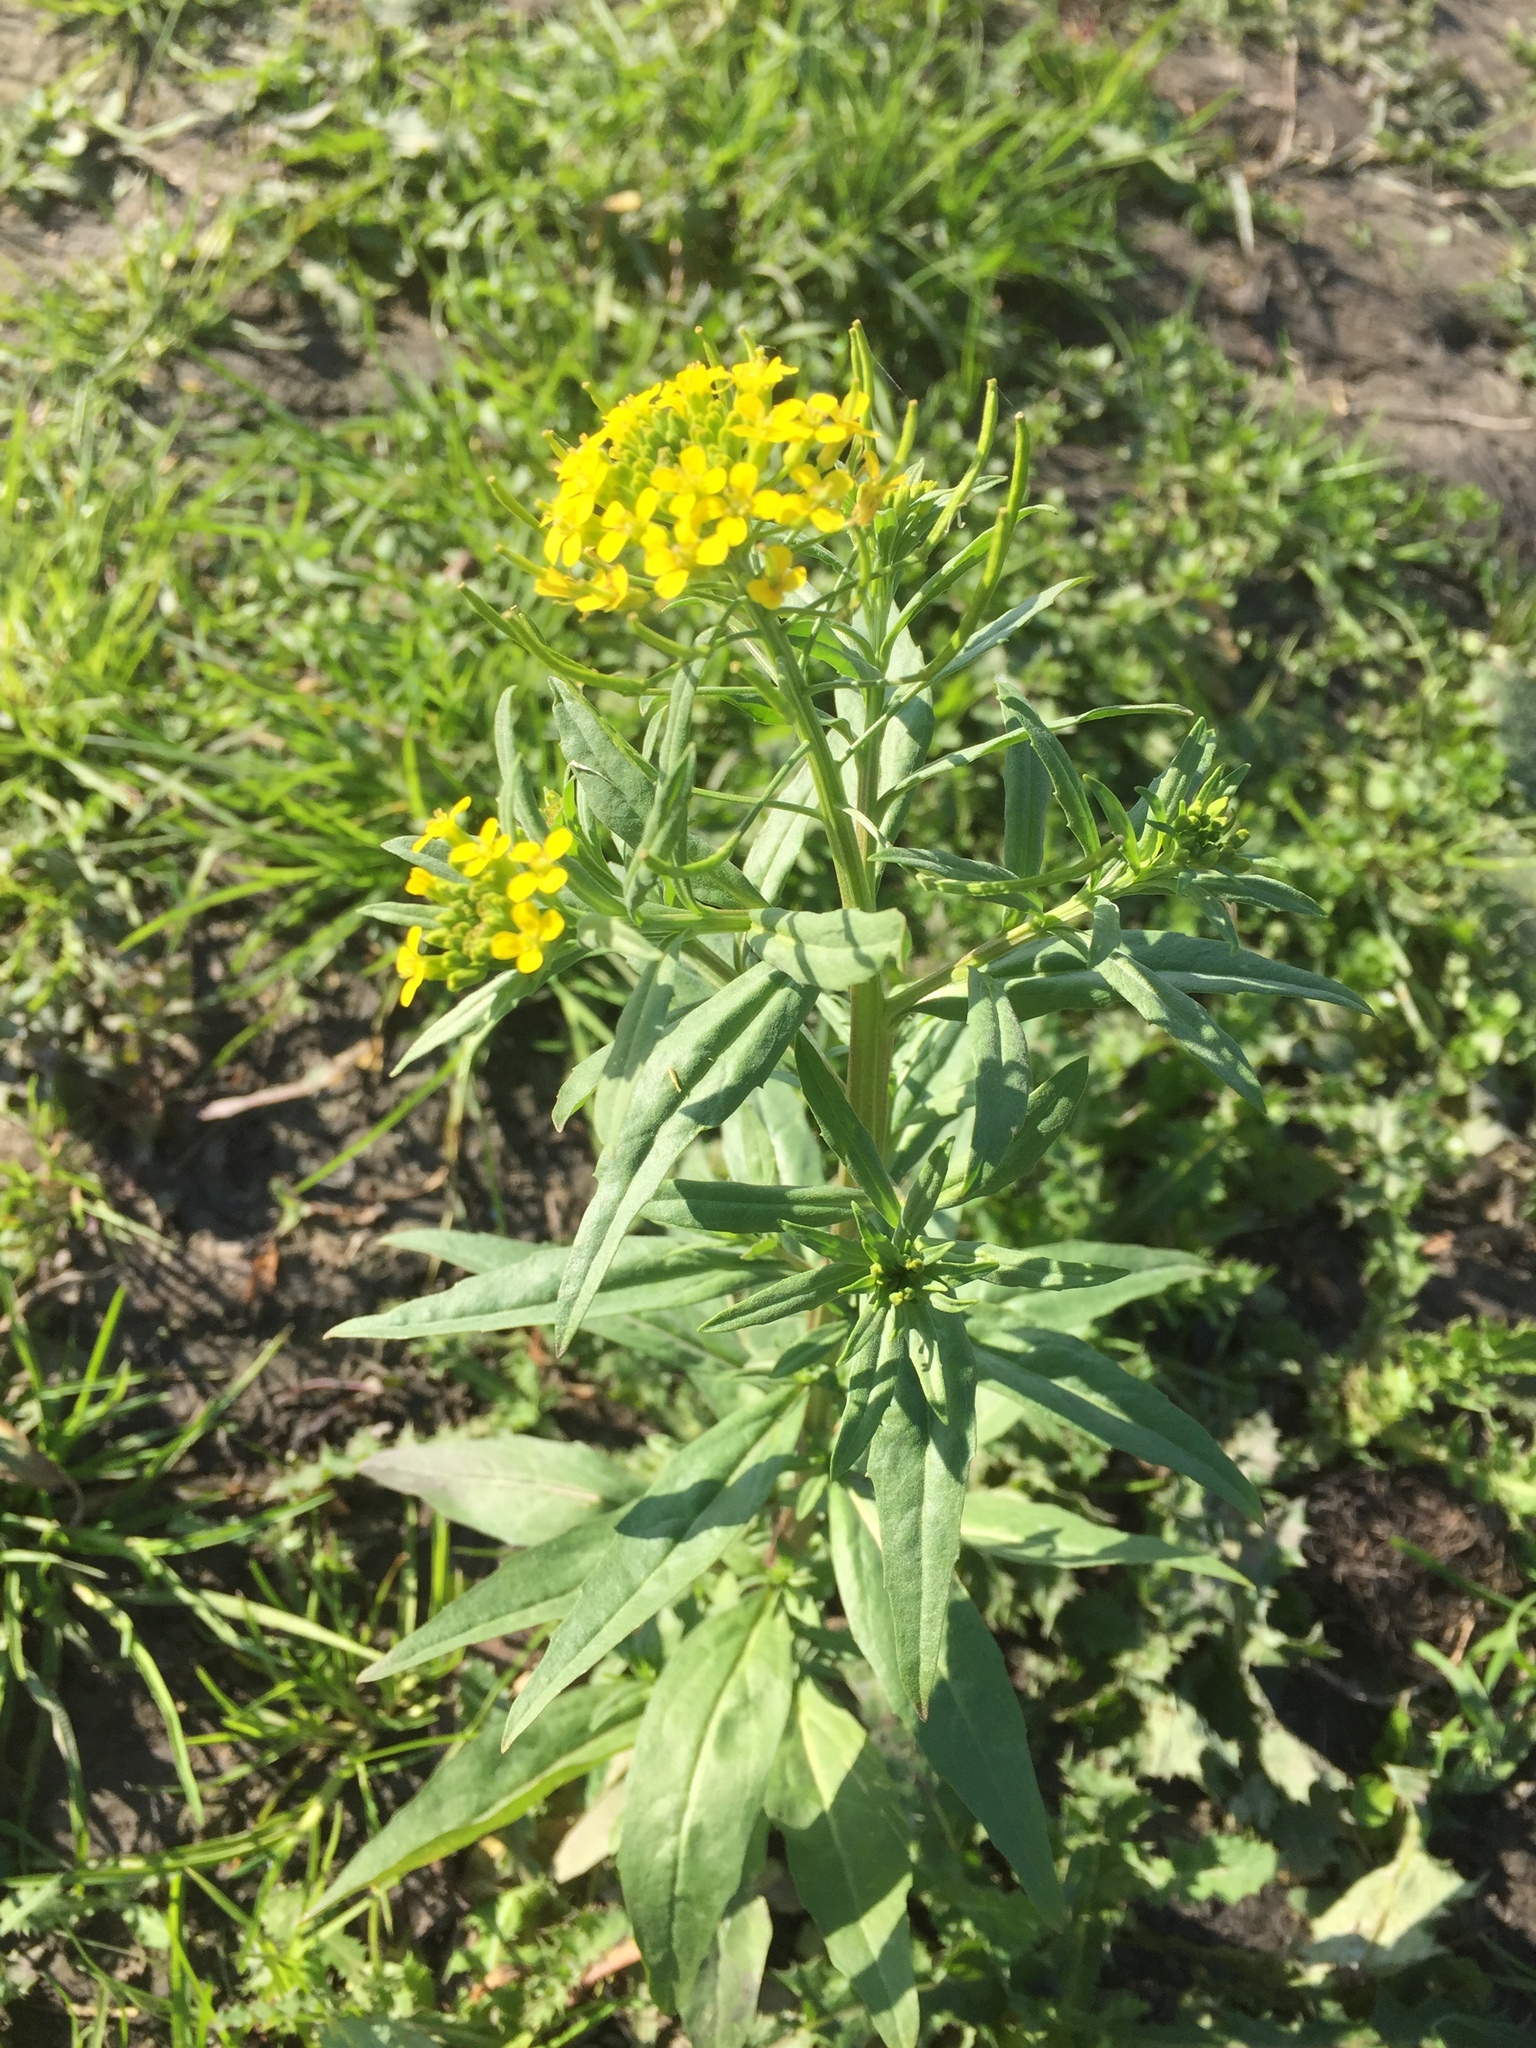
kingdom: Plantae
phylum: Tracheophyta
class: Magnoliopsida
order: Brassicales
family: Brassicaceae
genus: Erysimum
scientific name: Erysimum cheiranthoides
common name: Treacle mustard
